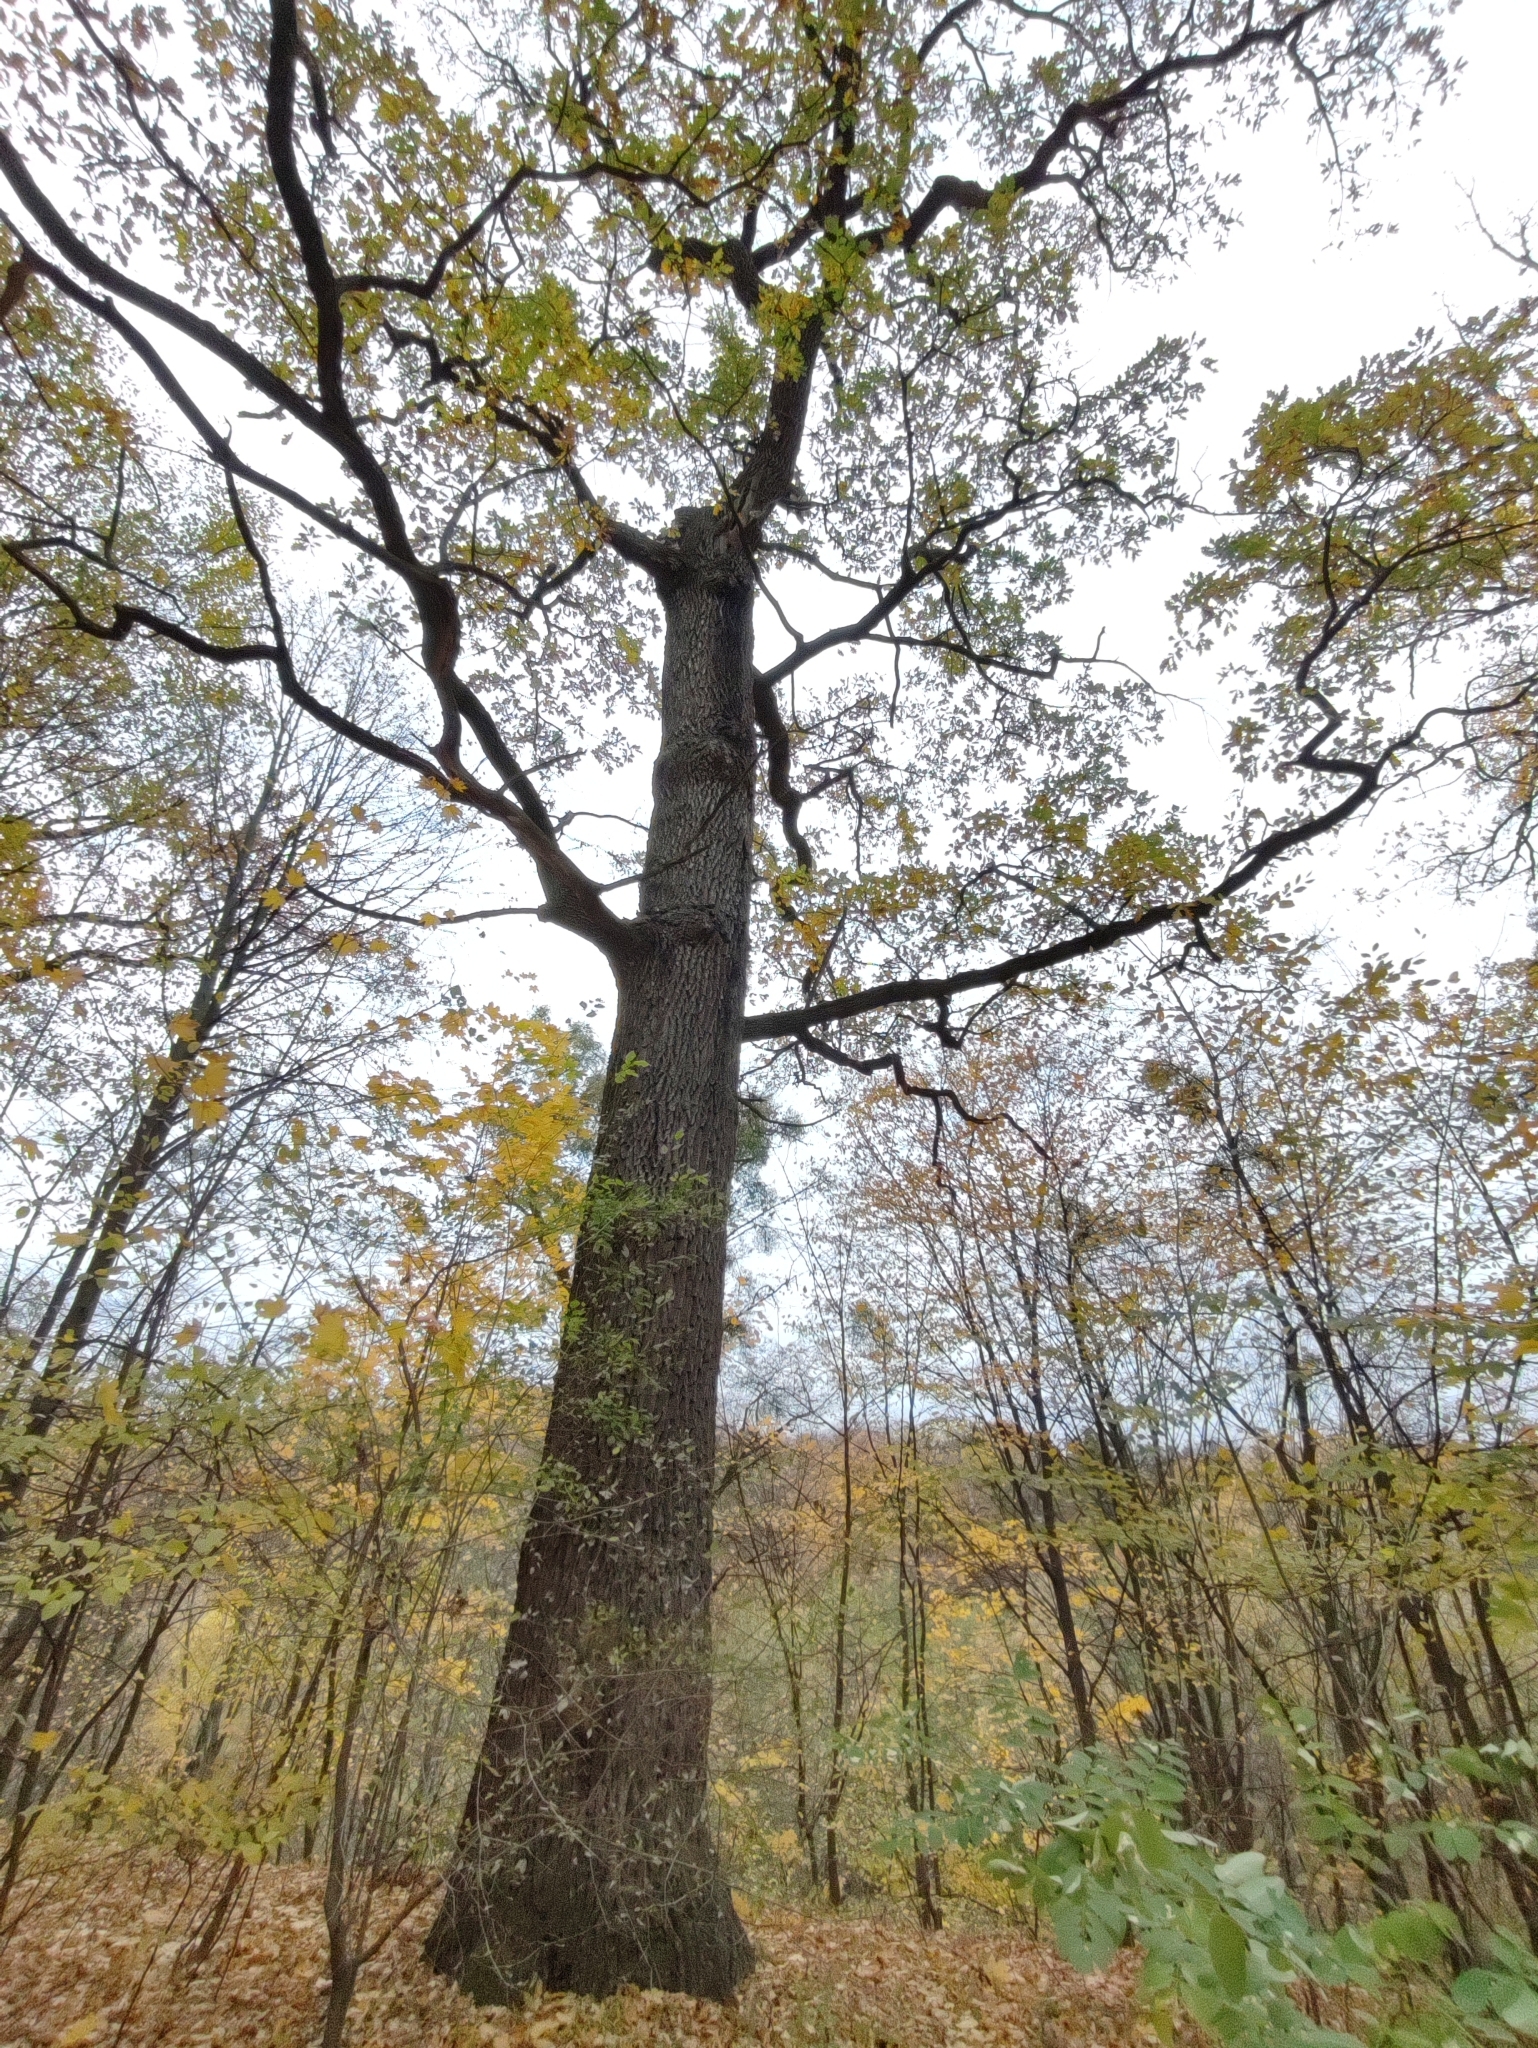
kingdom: Plantae
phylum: Tracheophyta
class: Magnoliopsida
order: Fagales
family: Fagaceae
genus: Quercus
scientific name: Quercus robur
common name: Pedunculate oak
